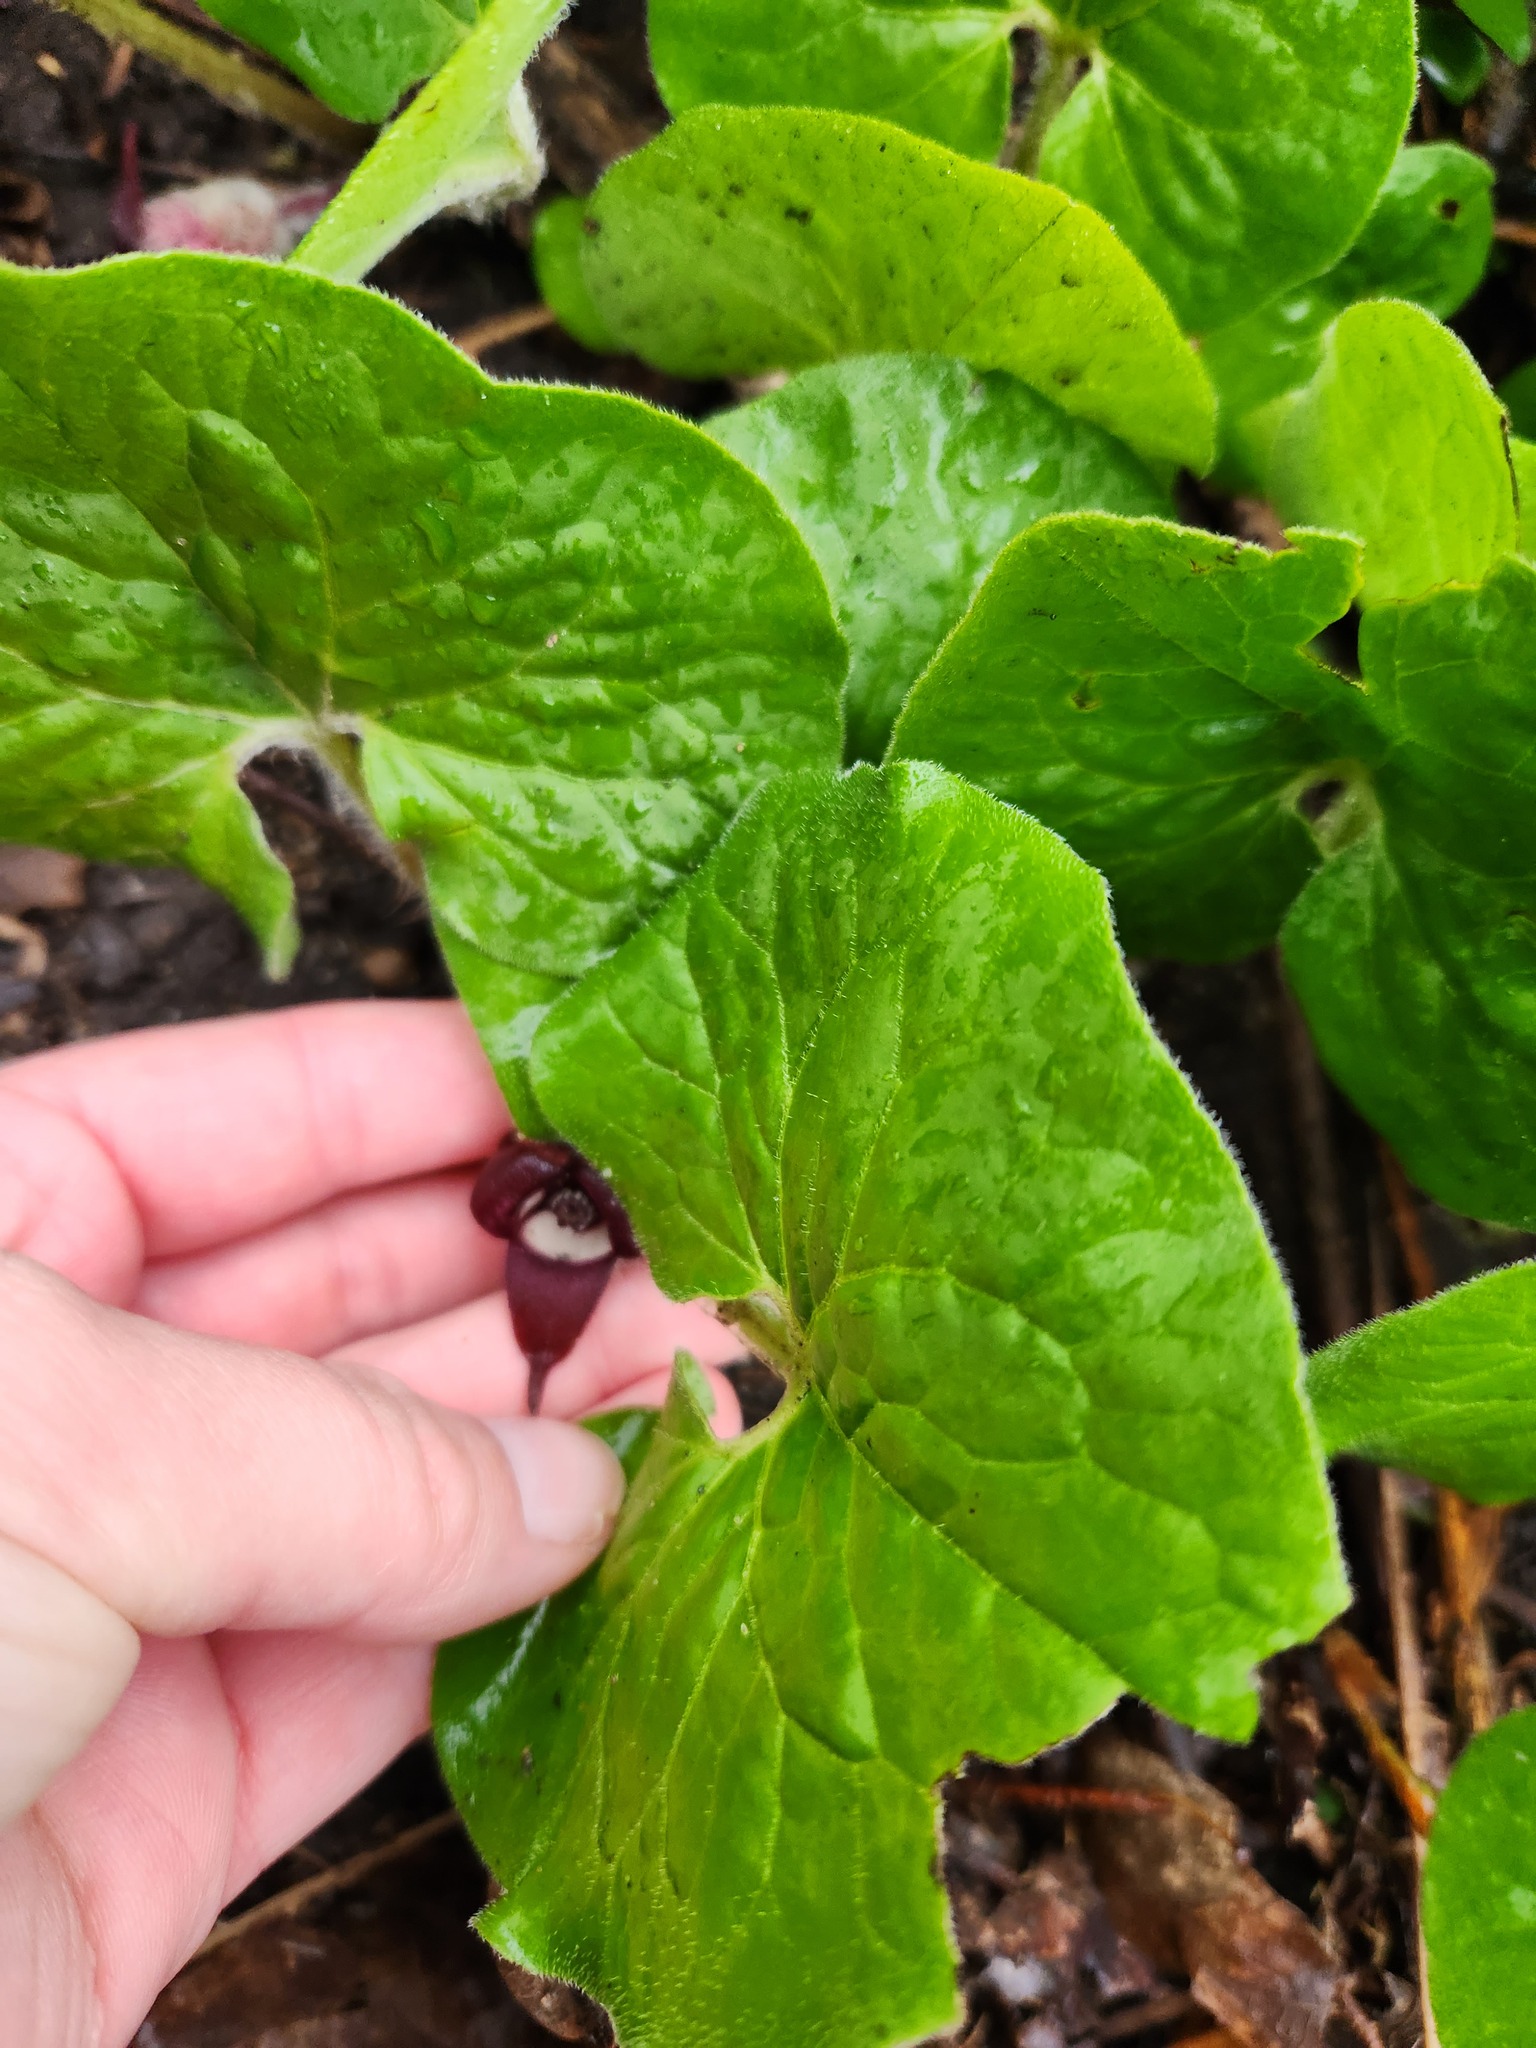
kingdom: Plantae
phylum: Tracheophyta
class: Magnoliopsida
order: Piperales
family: Aristolochiaceae
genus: Asarum
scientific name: Asarum canadense
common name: Wild ginger
